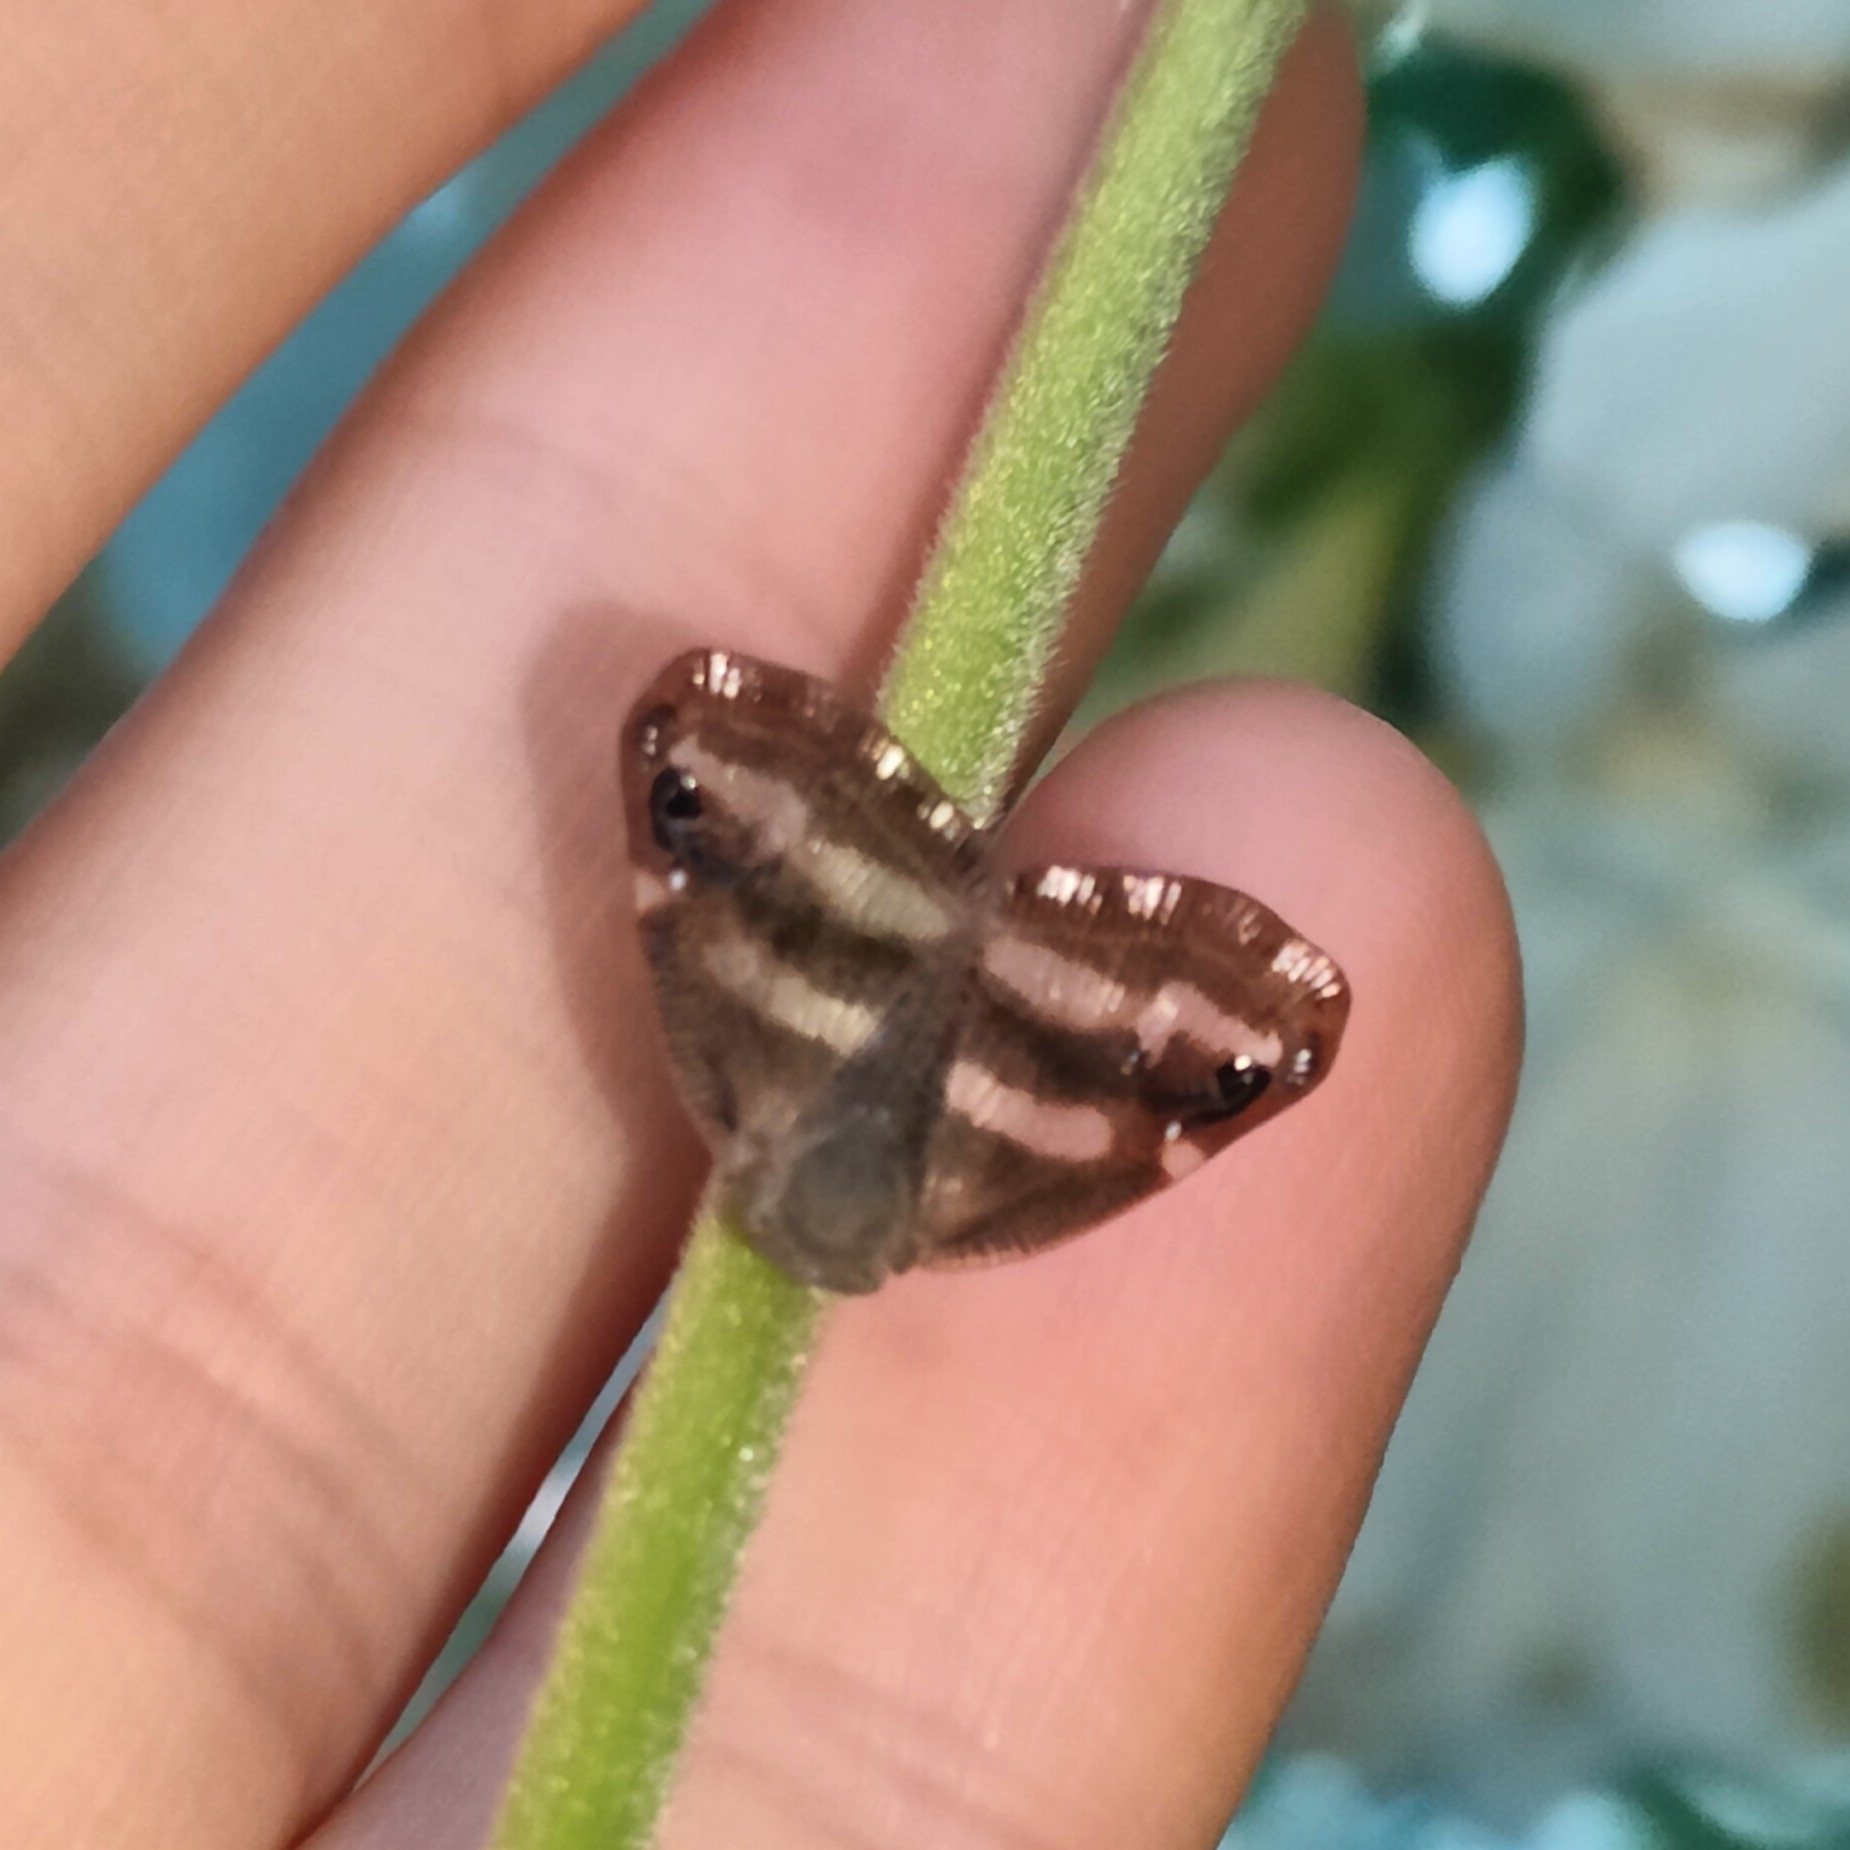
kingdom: Animalia
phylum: Arthropoda
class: Insecta
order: Hemiptera
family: Ricaniidae
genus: Orosanga
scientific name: Orosanga japonica
